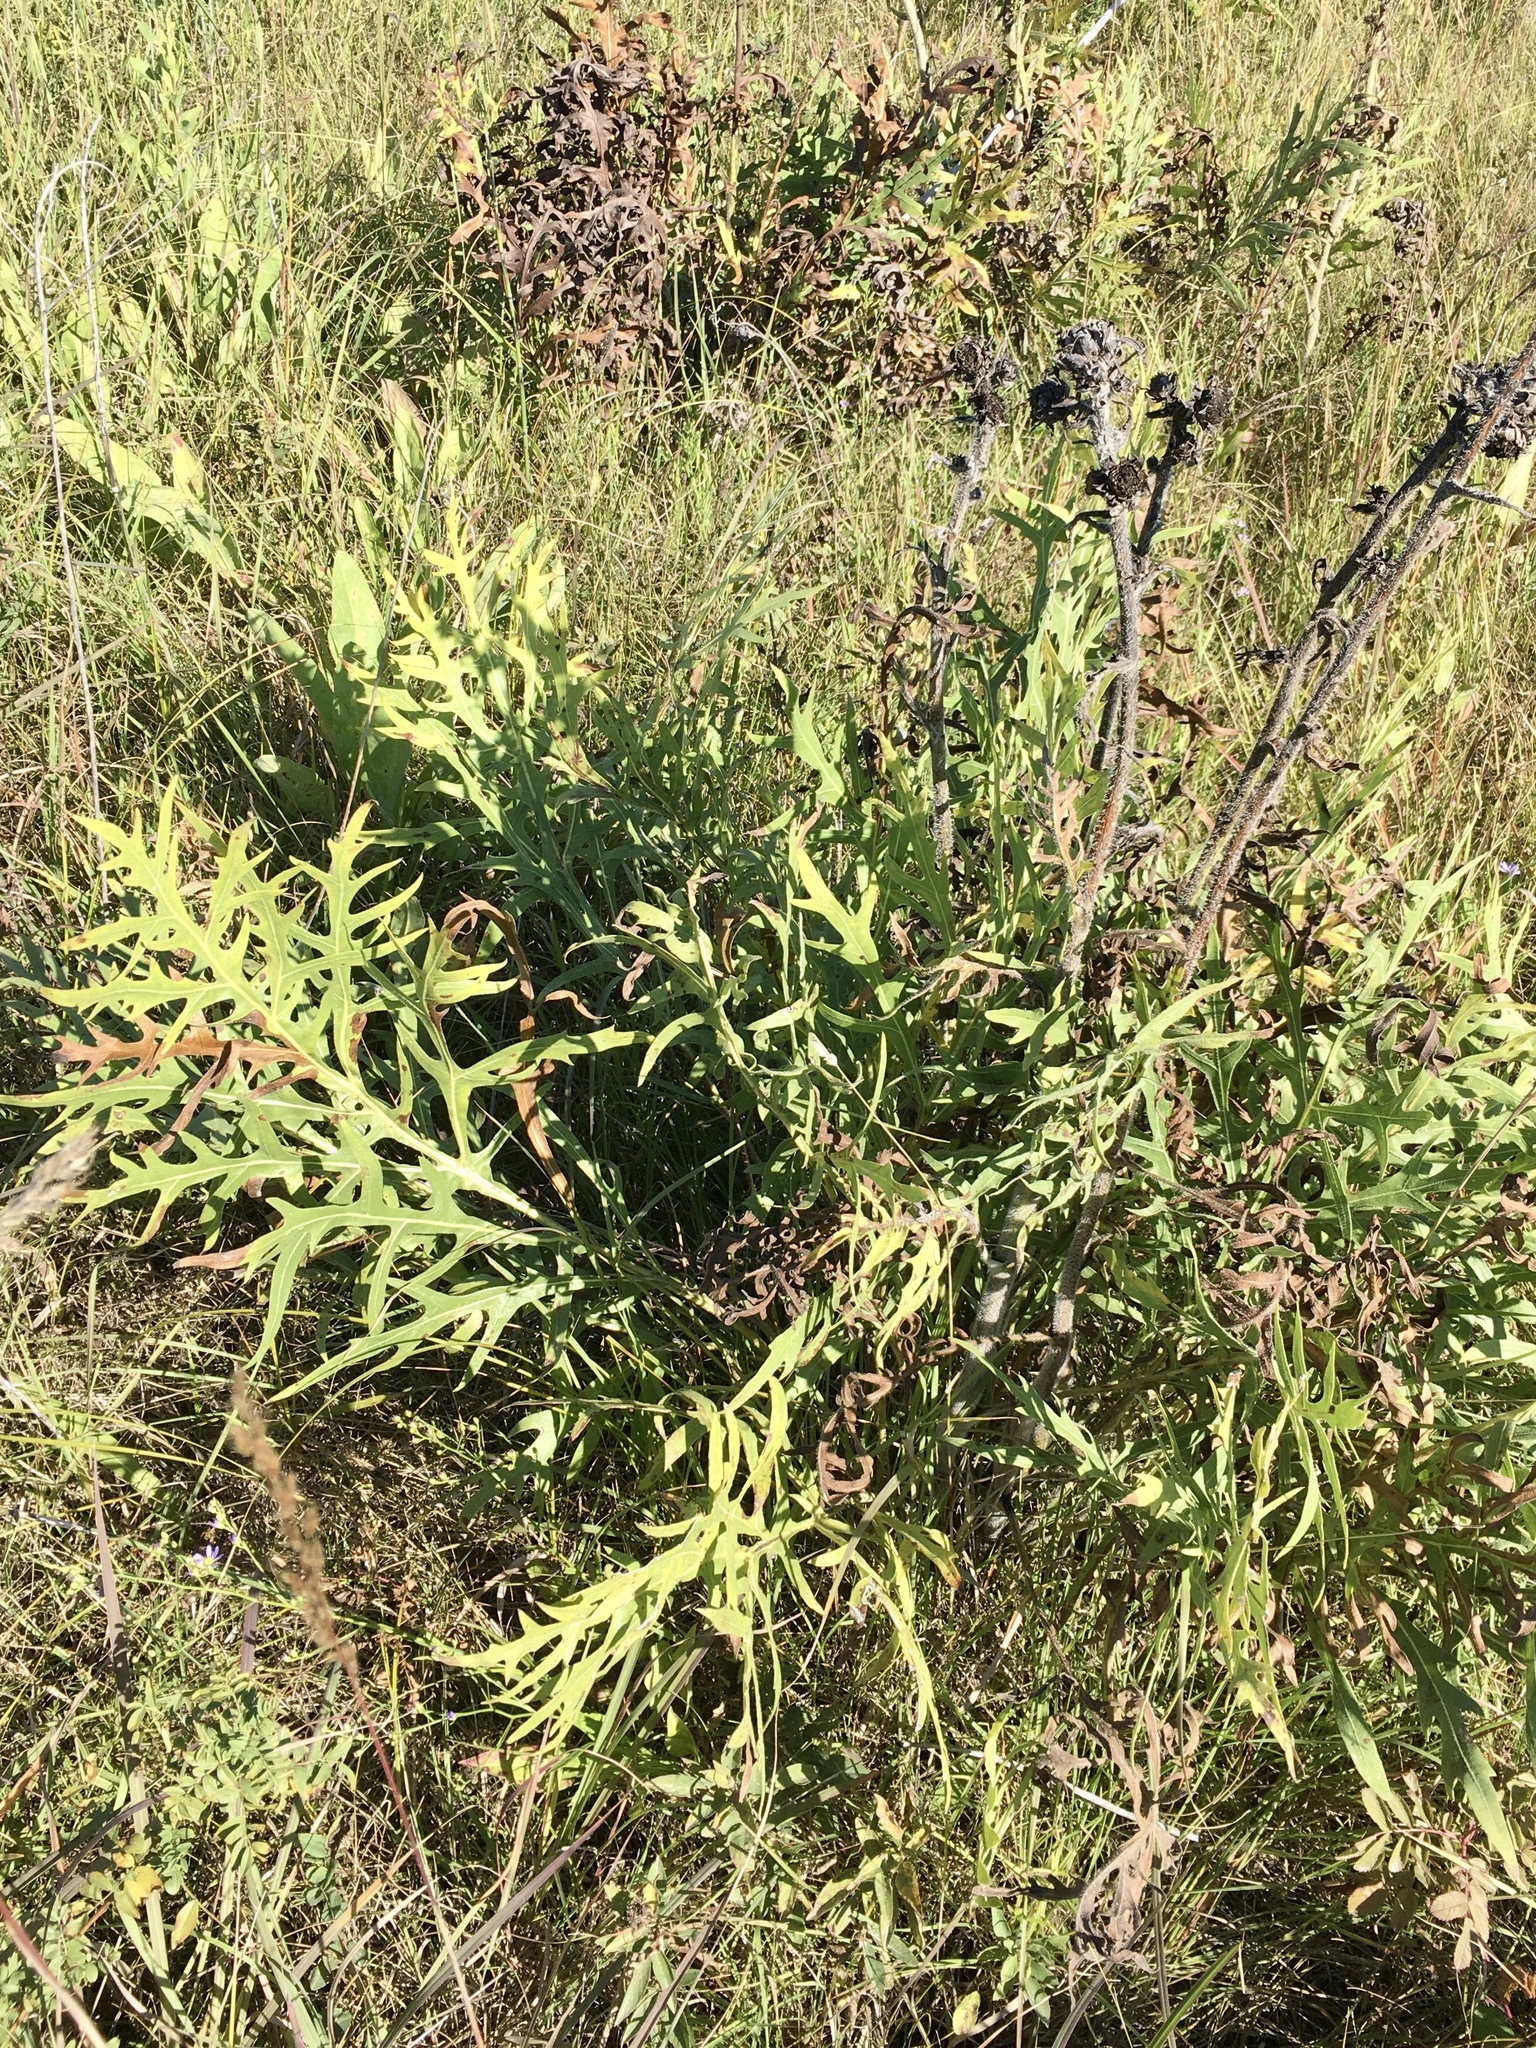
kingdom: Plantae
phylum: Tracheophyta
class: Magnoliopsida
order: Asterales
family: Asteraceae
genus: Silphium
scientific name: Silphium laciniatum
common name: Polarplant
